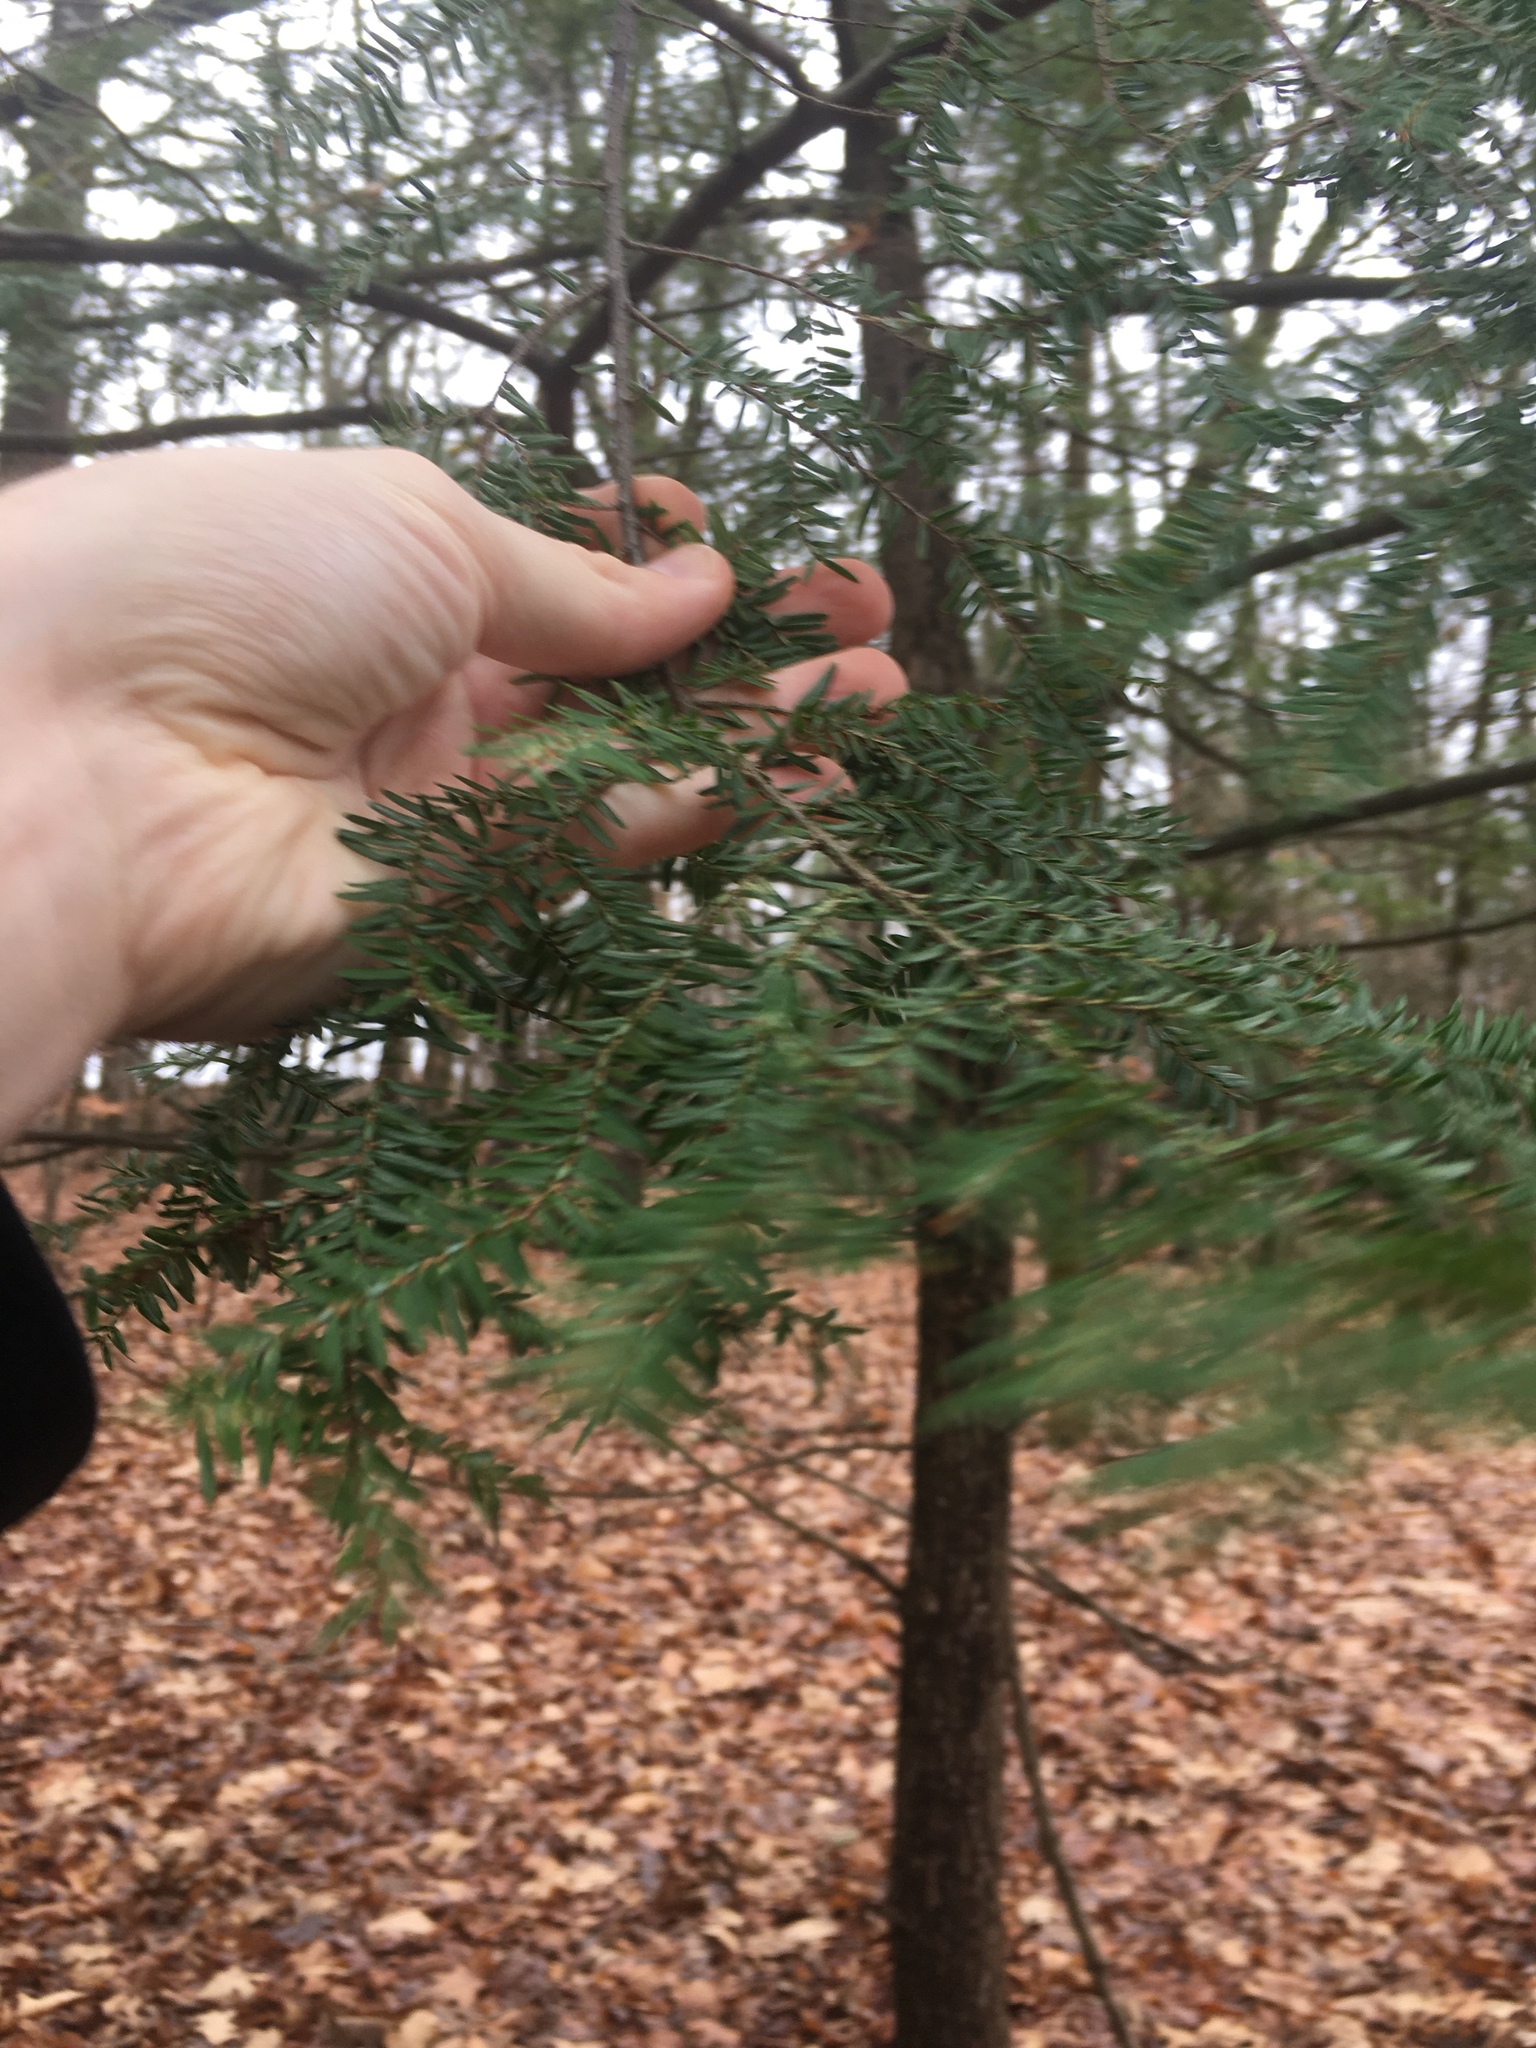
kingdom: Plantae
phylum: Tracheophyta
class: Pinopsida
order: Pinales
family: Pinaceae
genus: Tsuga
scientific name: Tsuga canadensis
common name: Eastern hemlock
